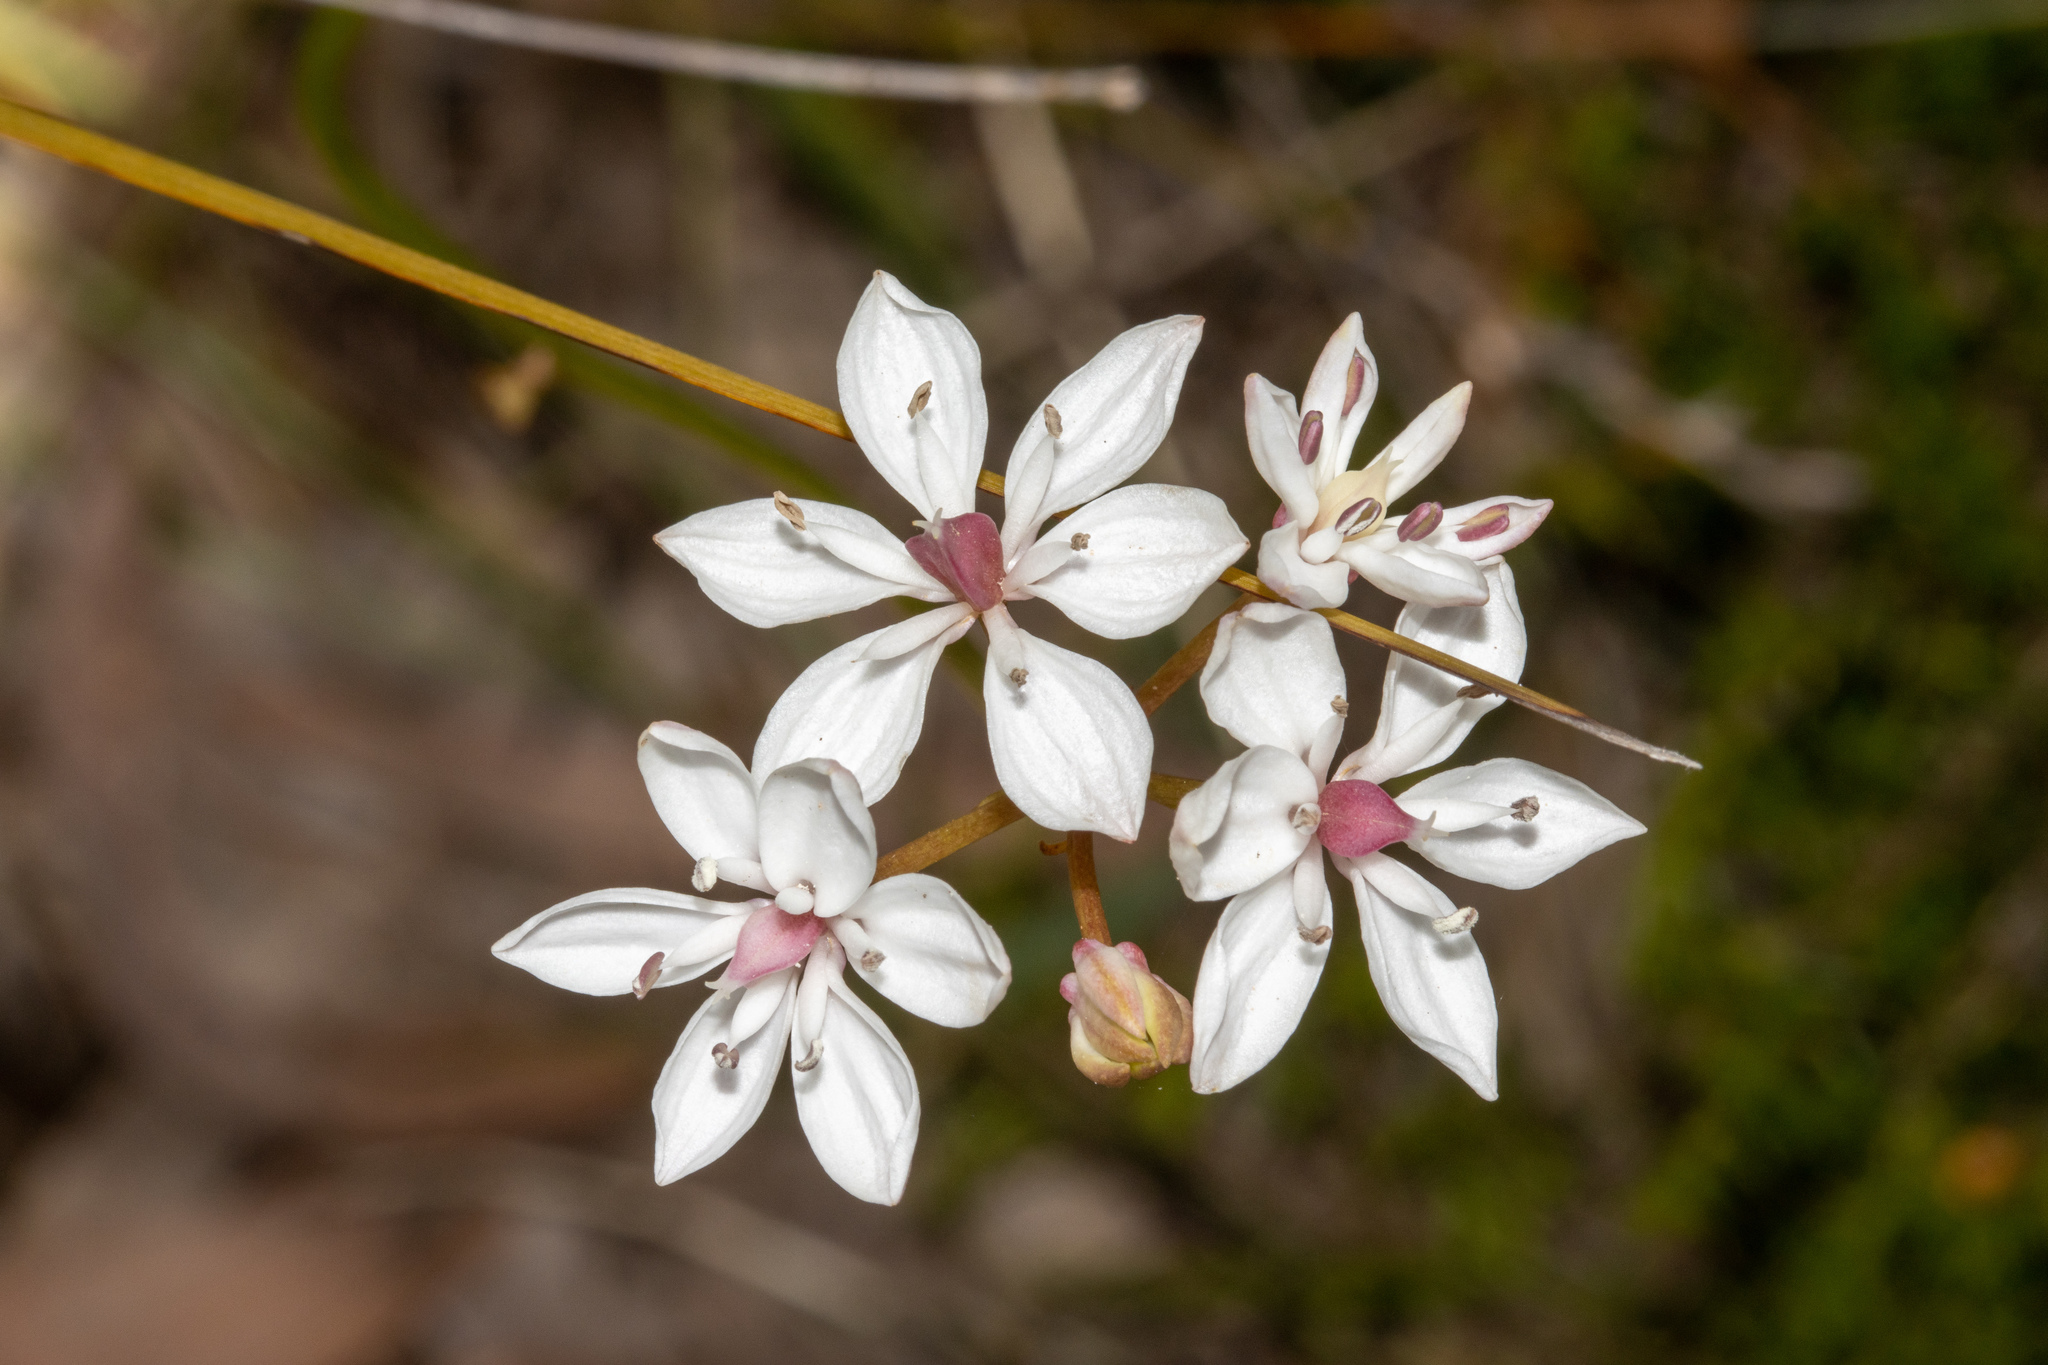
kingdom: Plantae
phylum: Tracheophyta
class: Liliopsida
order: Liliales
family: Colchicaceae
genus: Burchardia
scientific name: Burchardia umbellata
